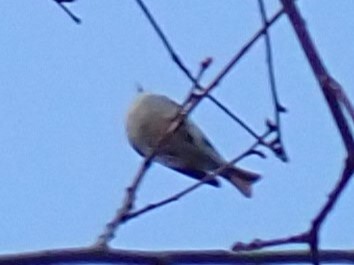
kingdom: Animalia
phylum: Chordata
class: Aves
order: Passeriformes
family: Regulidae
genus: Regulus
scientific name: Regulus calendula
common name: Ruby-crowned kinglet
